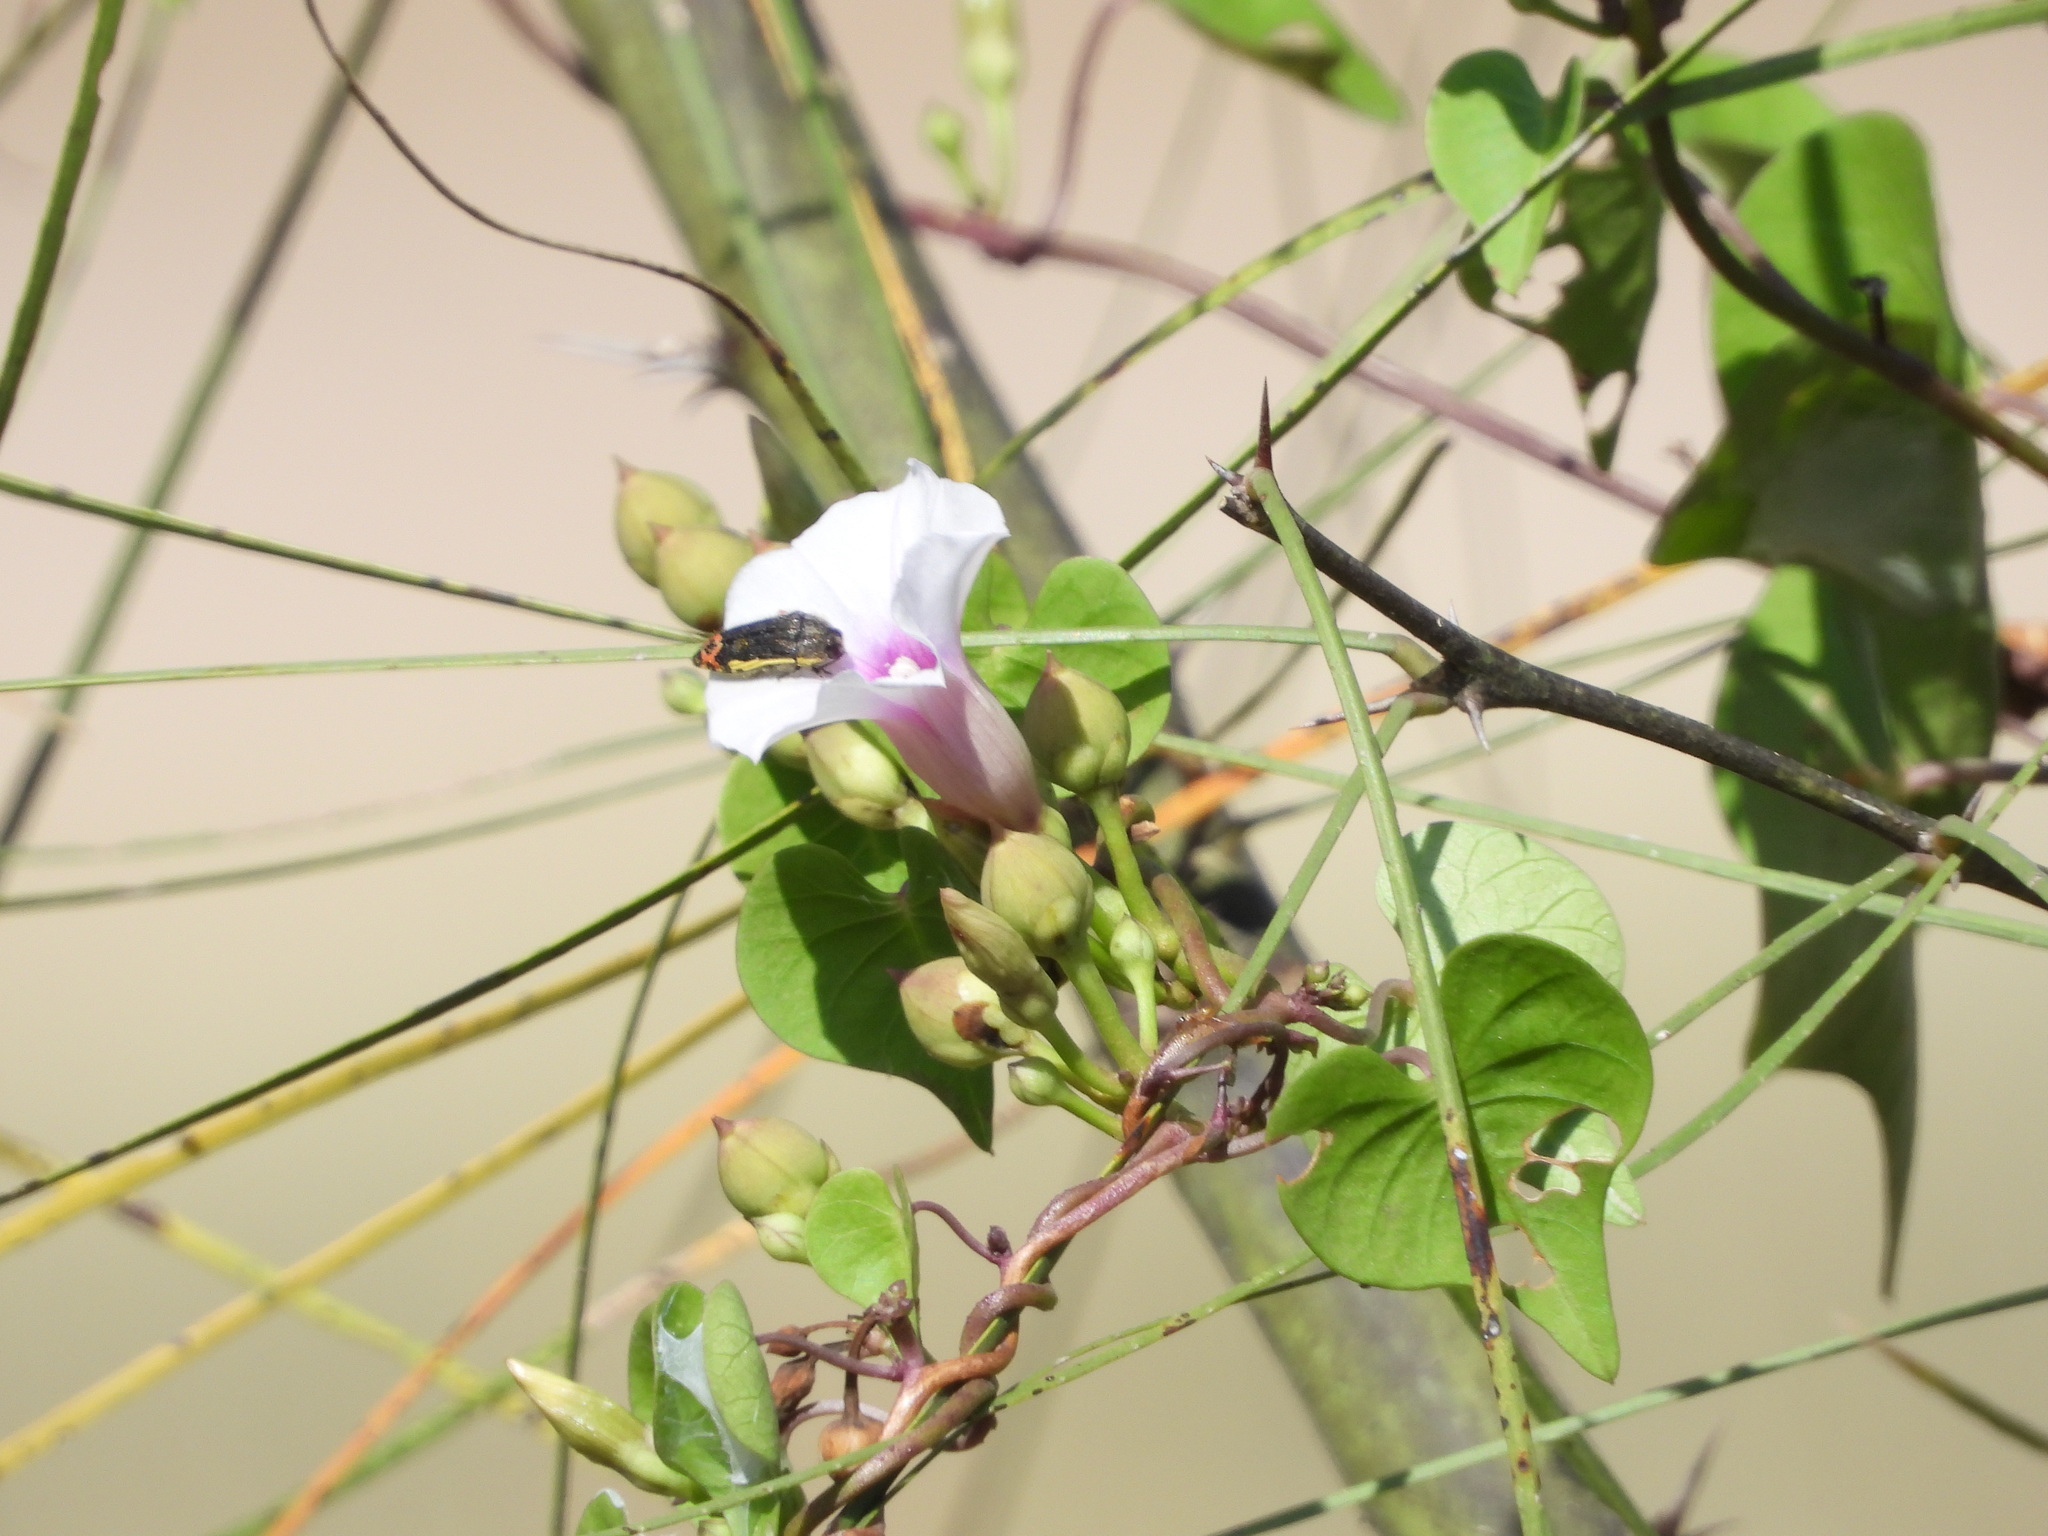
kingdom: Animalia
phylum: Arthropoda
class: Insecta
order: Coleoptera
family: Buprestidae
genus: Acmaeodera
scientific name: Acmaeodera flavomarginata
